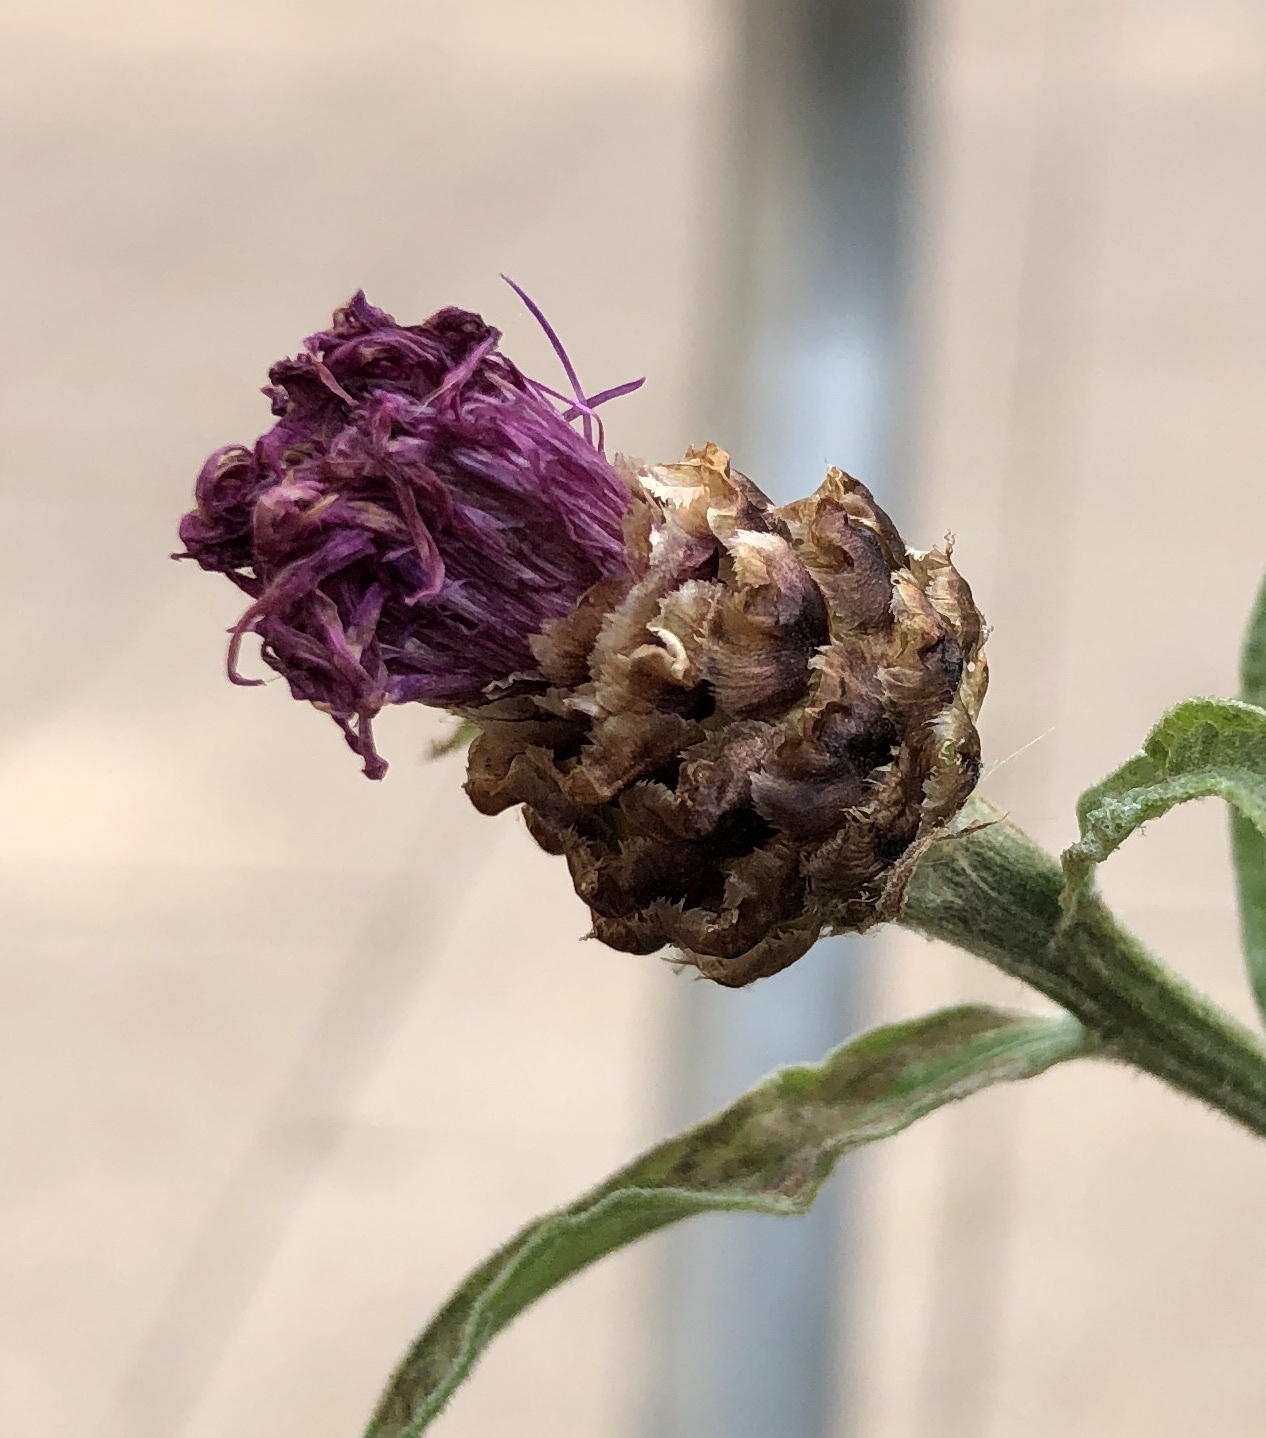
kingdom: Plantae
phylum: Tracheophyta
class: Magnoliopsida
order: Asterales
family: Asteraceae
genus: Centaurea
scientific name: Centaurea jacea
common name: Brown knapweed
